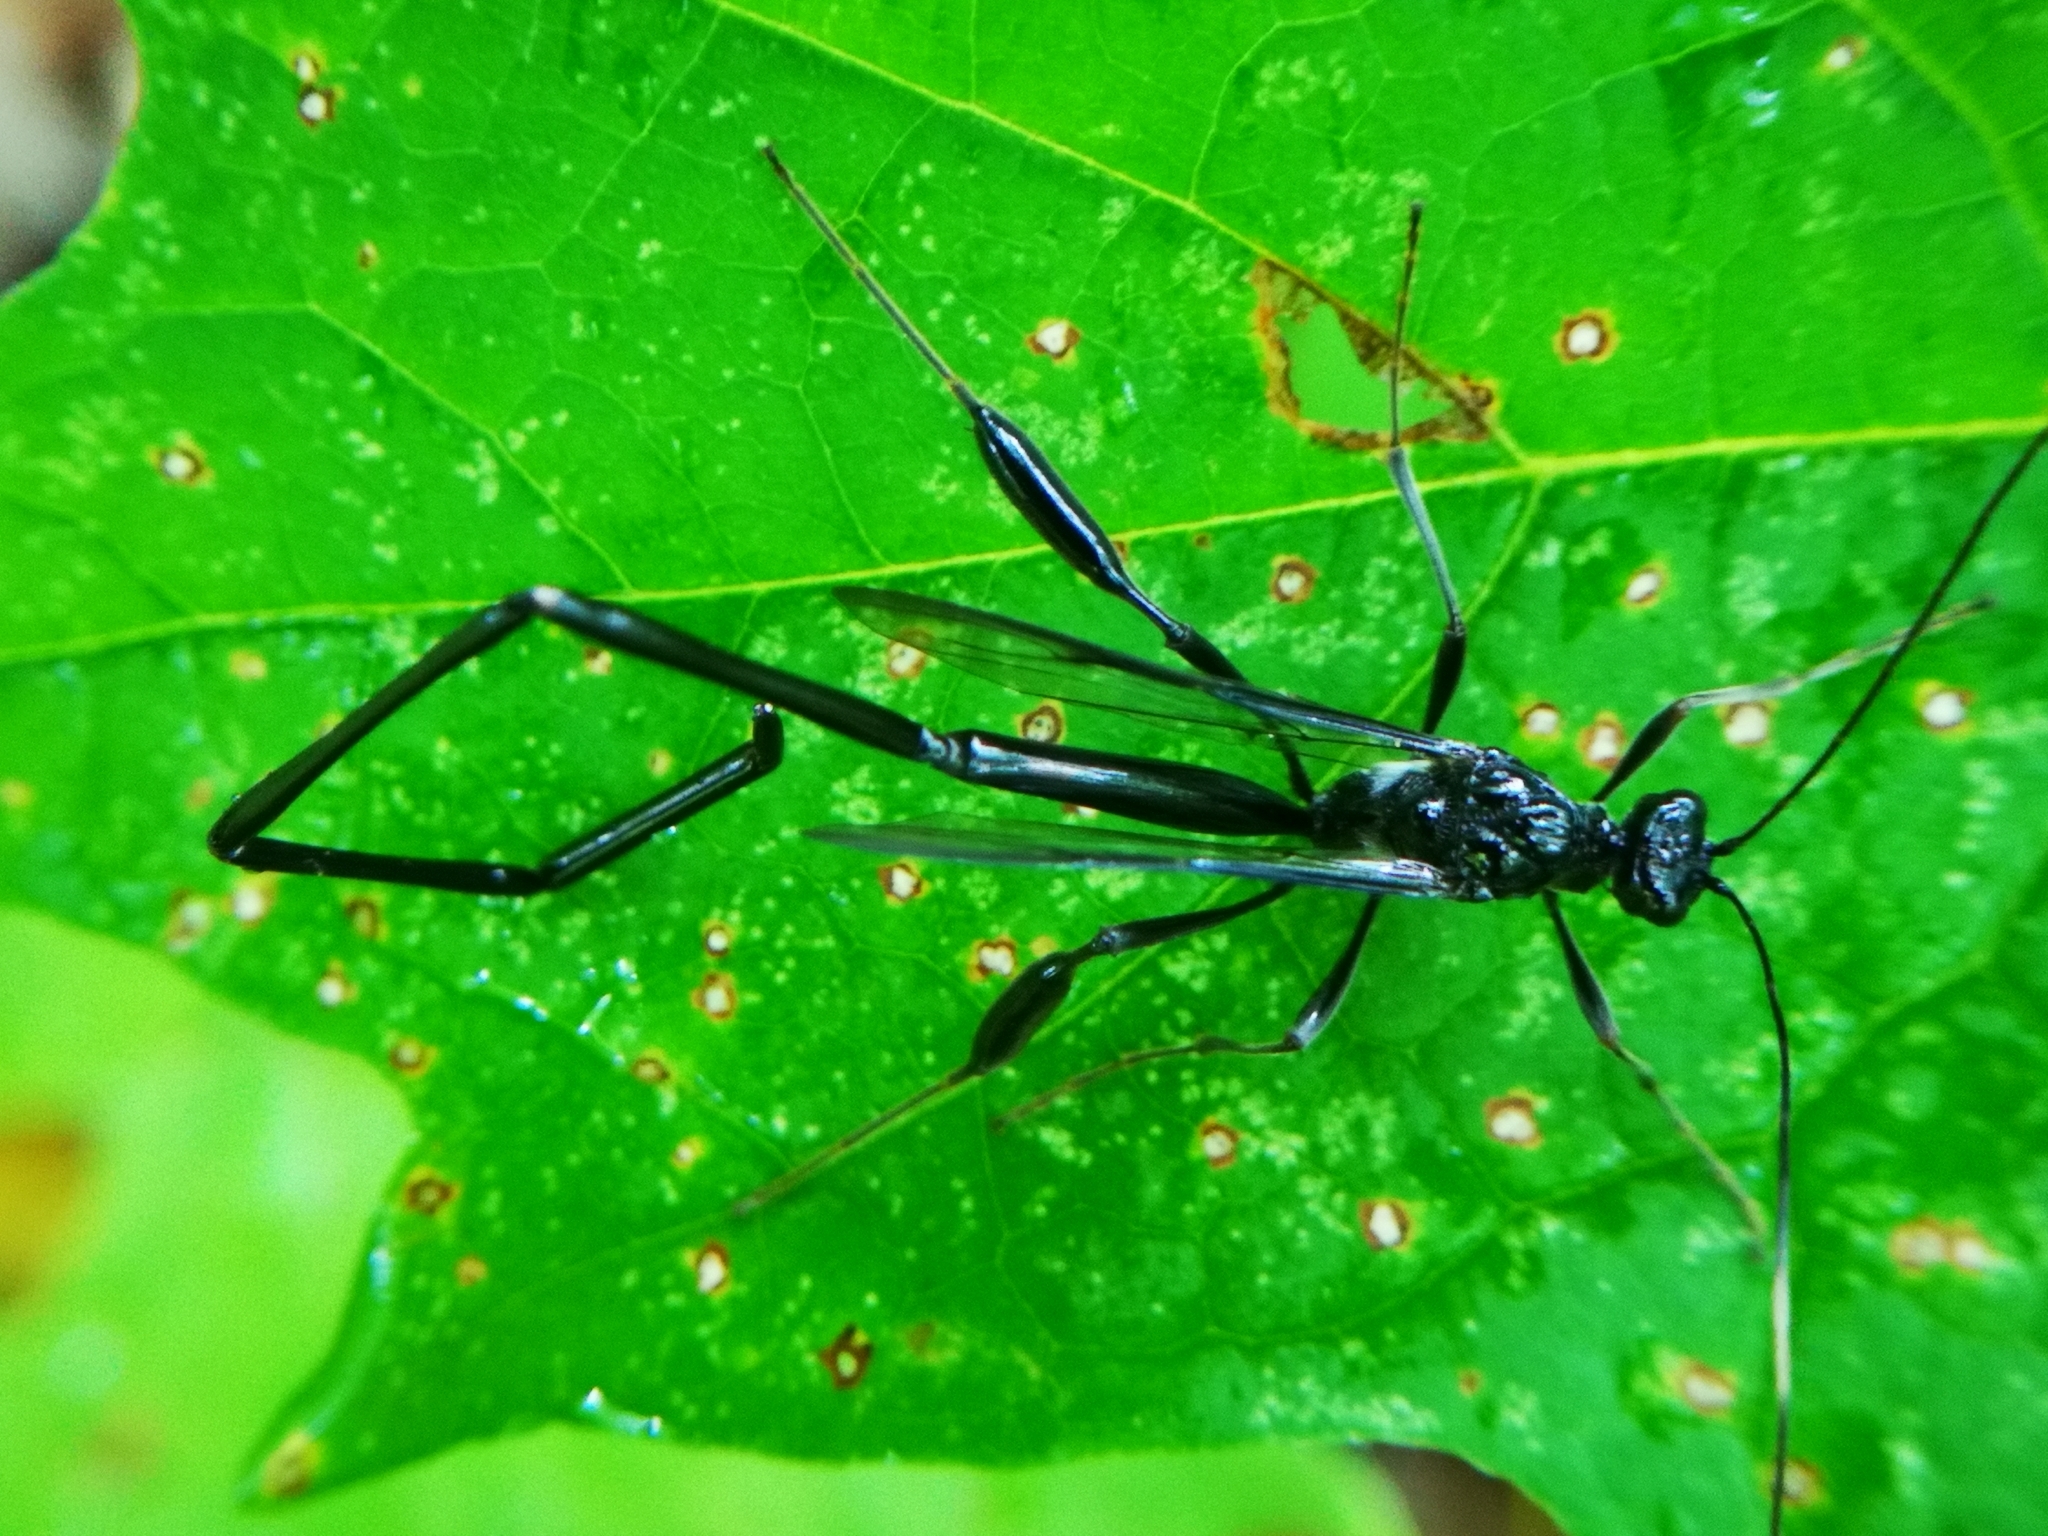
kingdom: Animalia
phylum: Arthropoda
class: Insecta
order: Hymenoptera
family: Pelecinidae
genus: Pelecinus
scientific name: Pelecinus polyturator
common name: American pelecinid wasp
